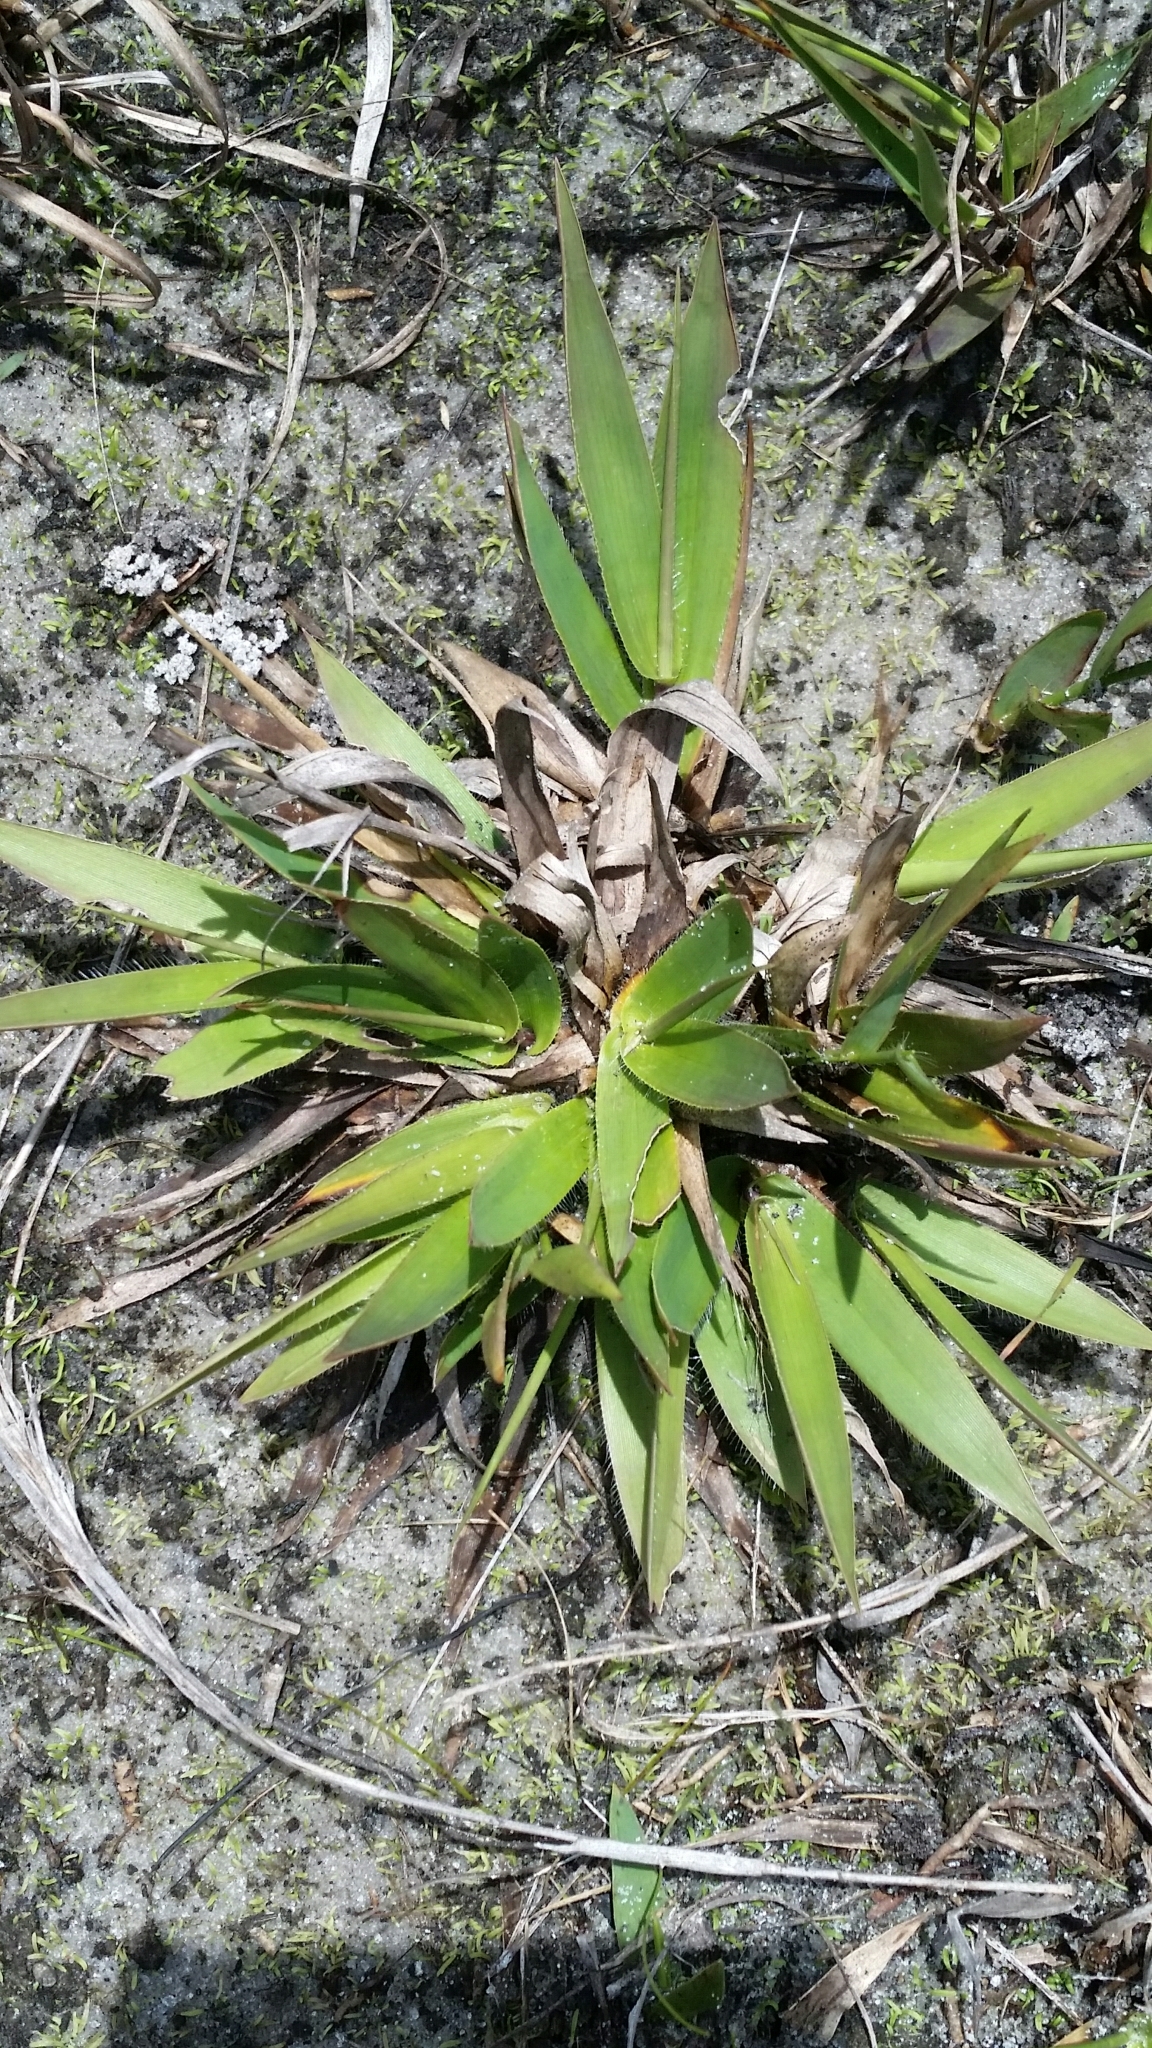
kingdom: Plantae
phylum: Tracheophyta
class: Liliopsida
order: Poales
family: Poaceae
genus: Dichanthelium
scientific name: Dichanthelium strigosum
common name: Cushion-tuft panic grass
